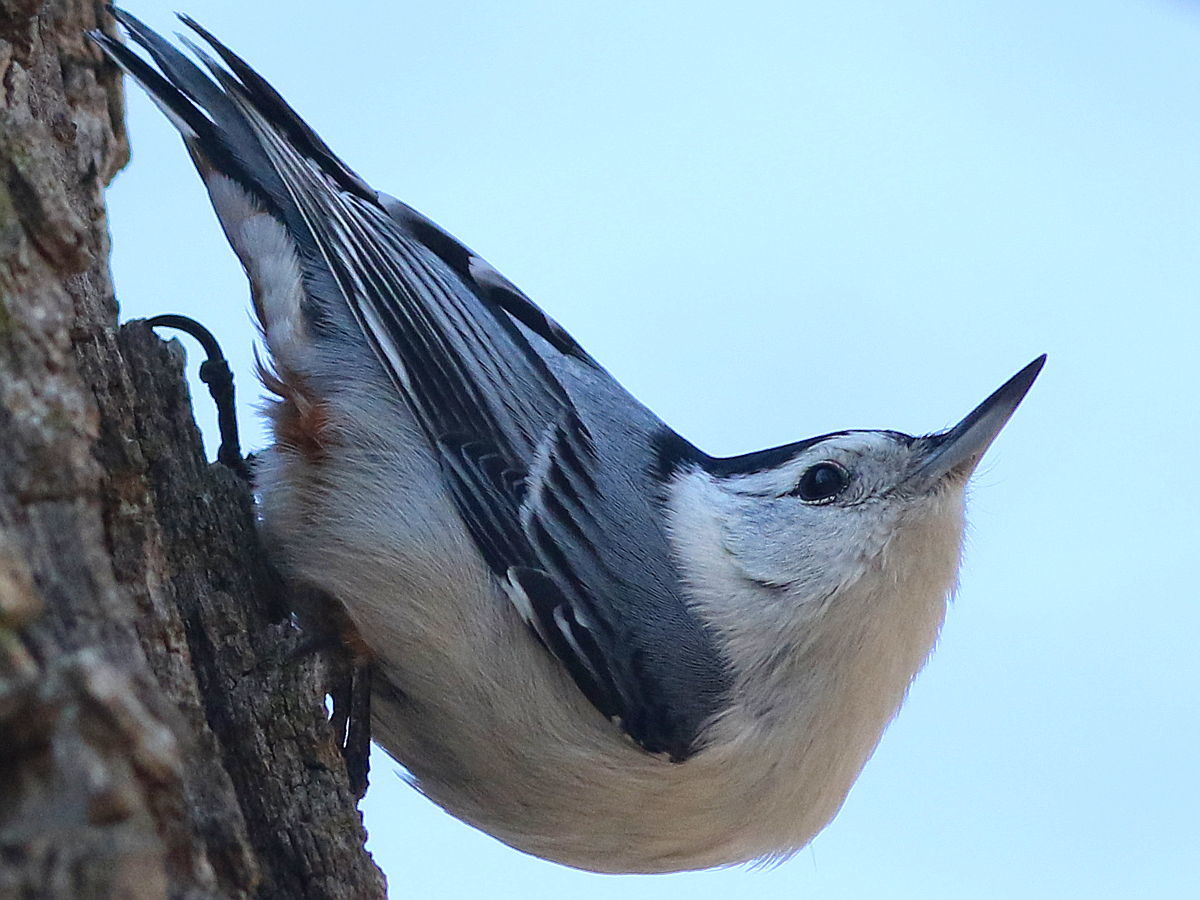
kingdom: Animalia
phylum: Chordata
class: Aves
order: Passeriformes
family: Sittidae
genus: Sitta
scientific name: Sitta carolinensis
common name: White-breasted nuthatch
